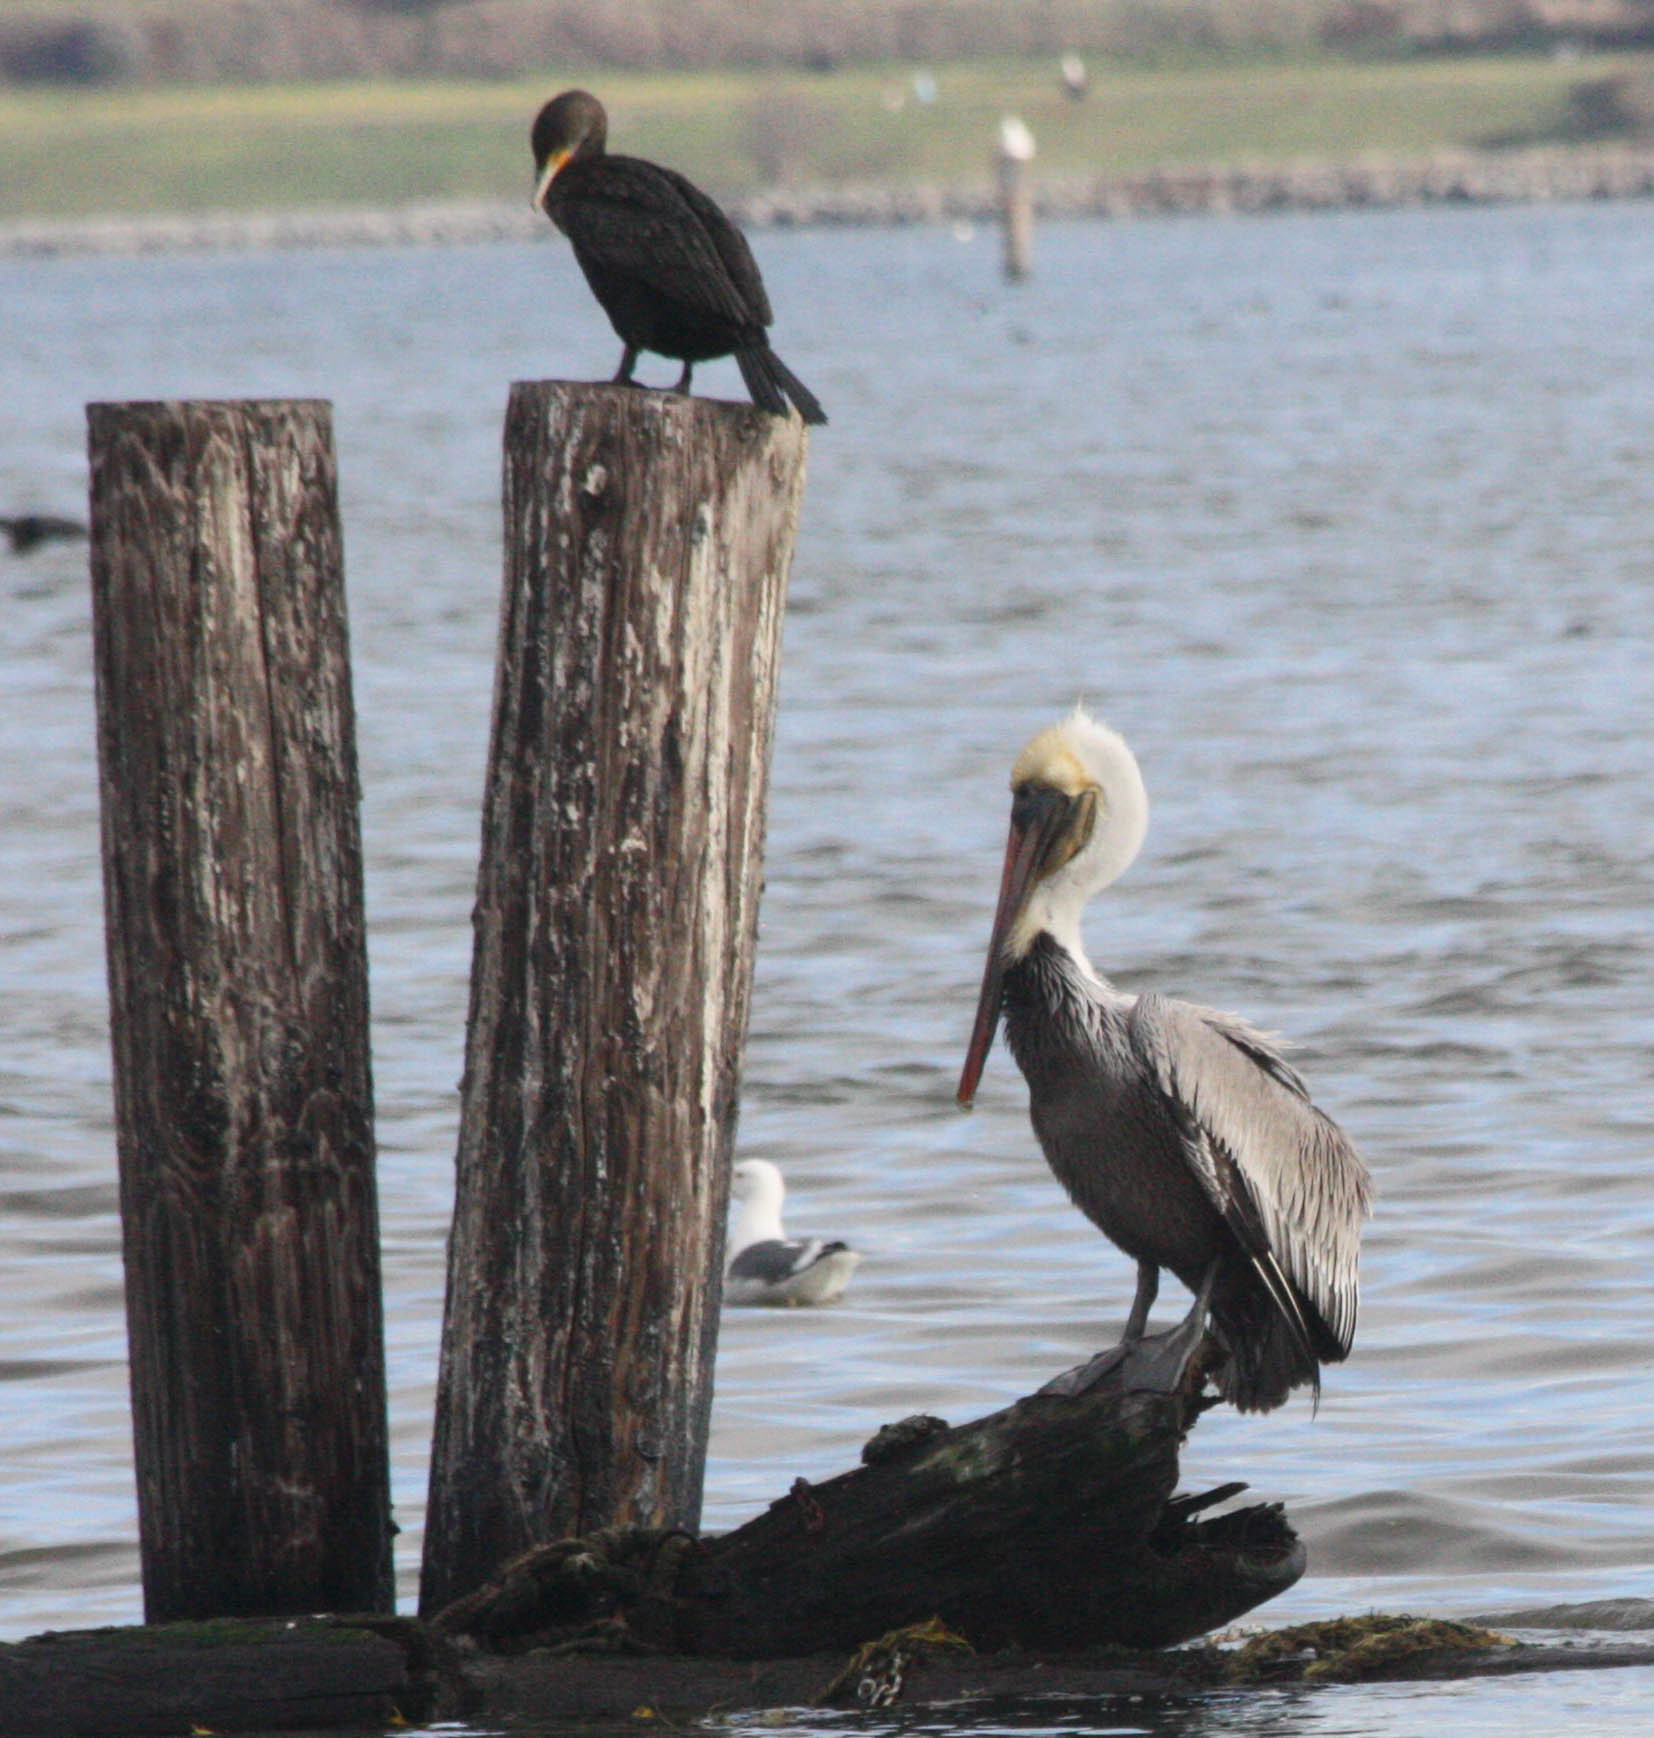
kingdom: Animalia
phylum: Chordata
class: Aves
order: Pelecaniformes
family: Pelecanidae
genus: Pelecanus
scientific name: Pelecanus occidentalis
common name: Brown pelican
